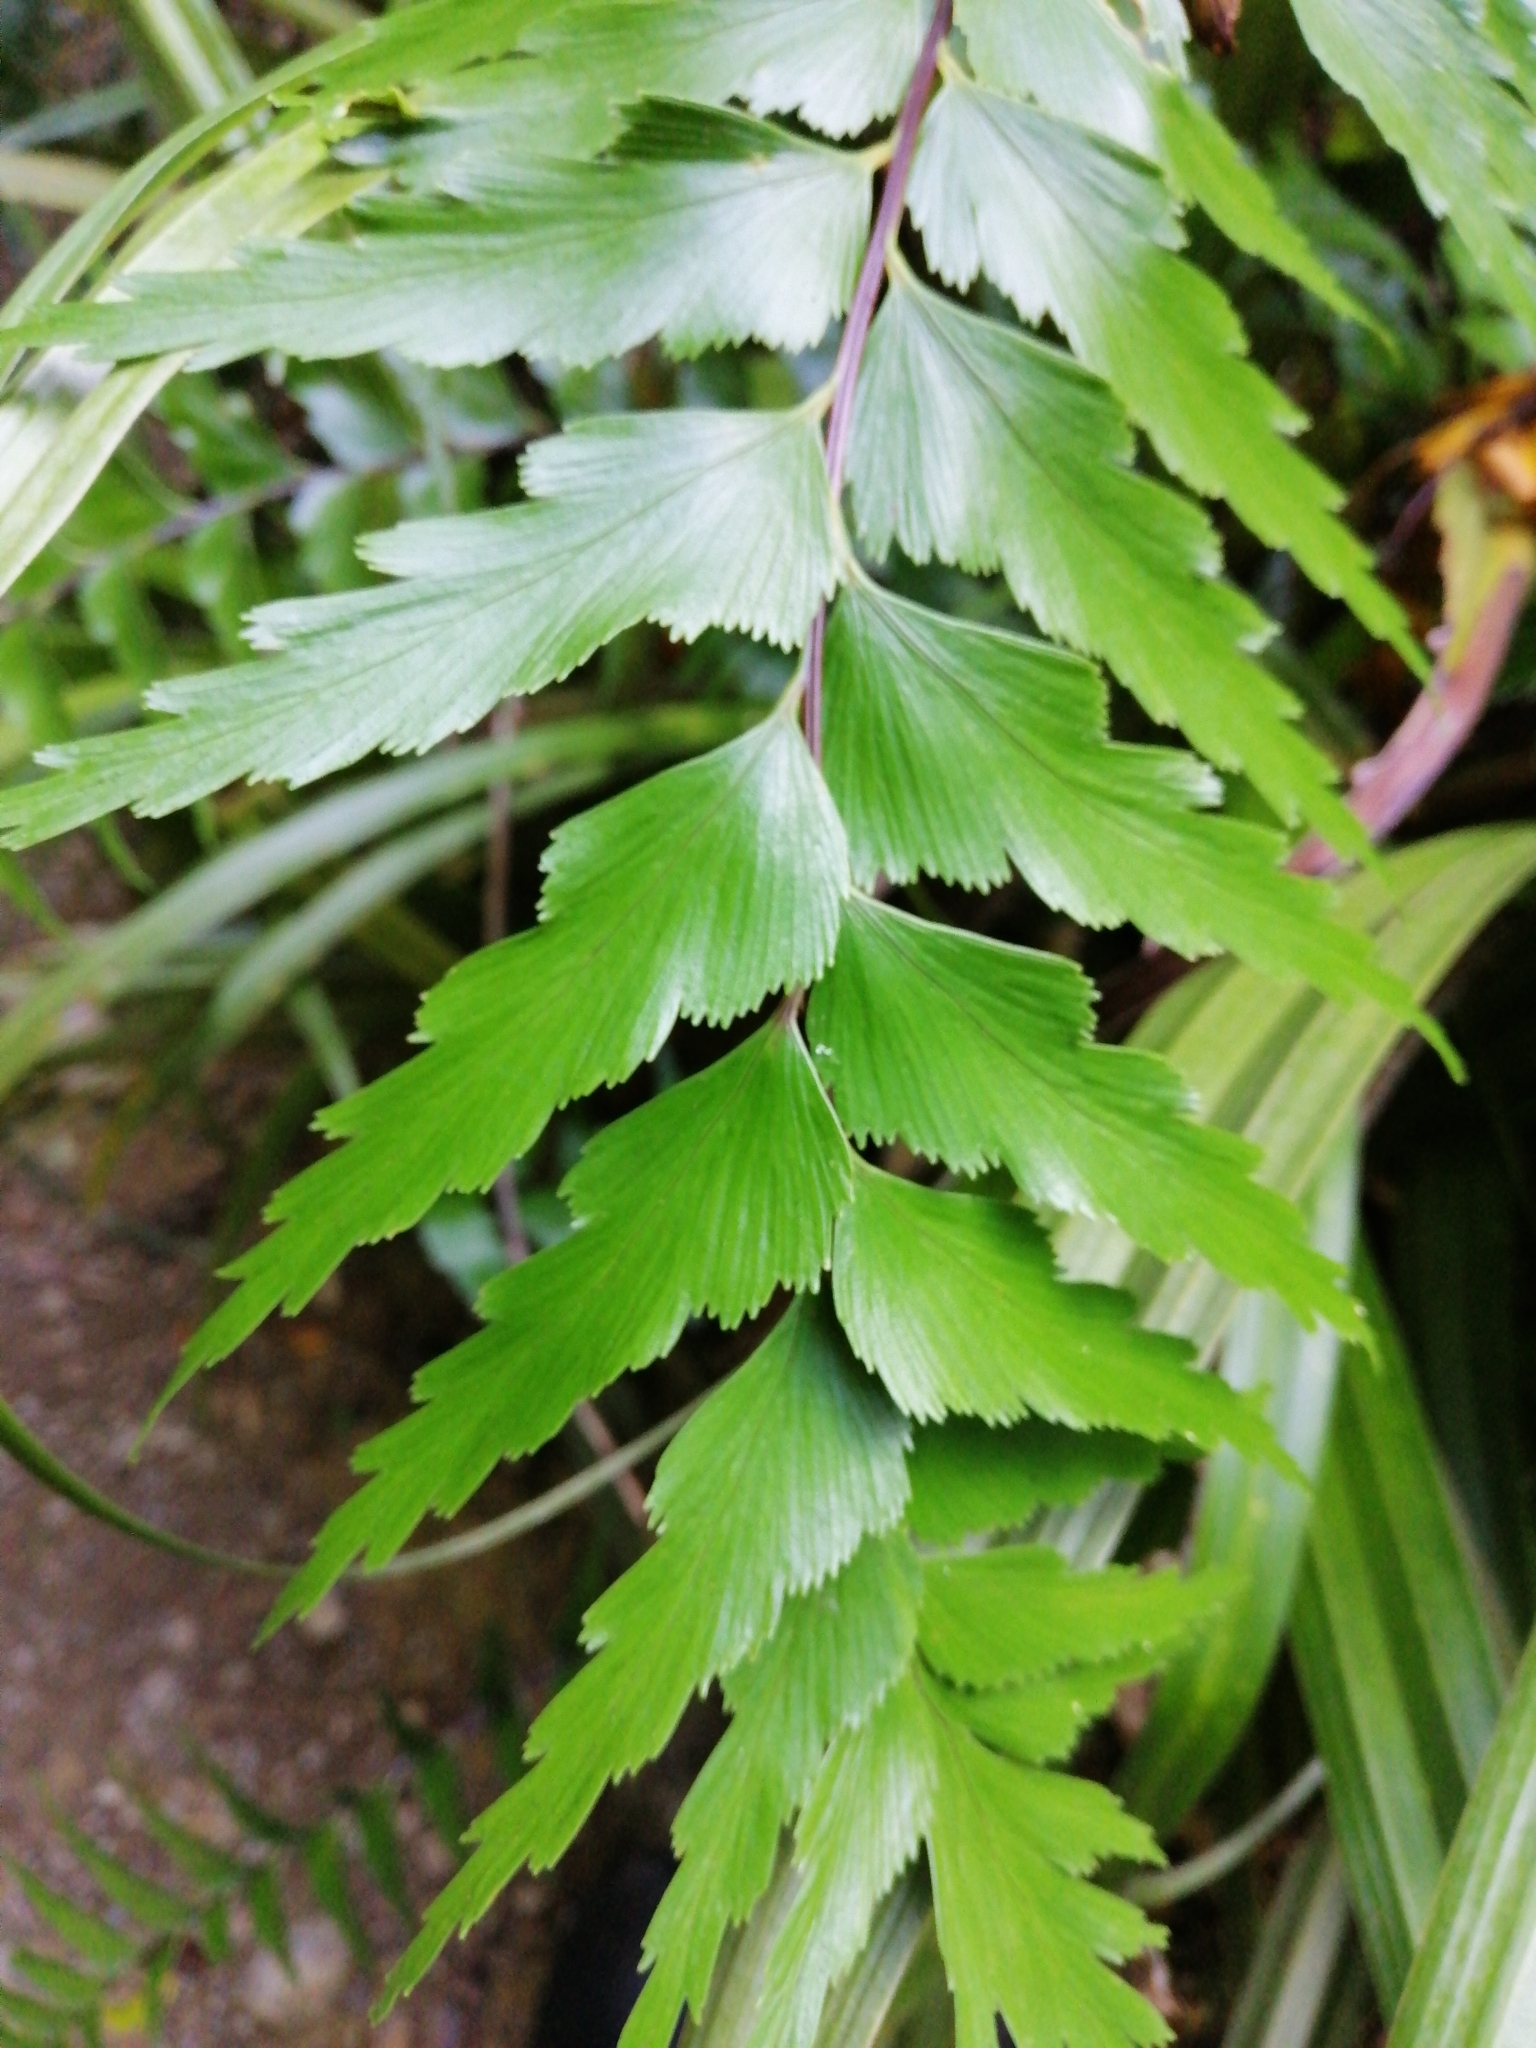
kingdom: Plantae
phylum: Tracheophyta
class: Polypodiopsida
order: Polypodiales
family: Aspleniaceae
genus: Asplenium
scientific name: Asplenium polyodon
